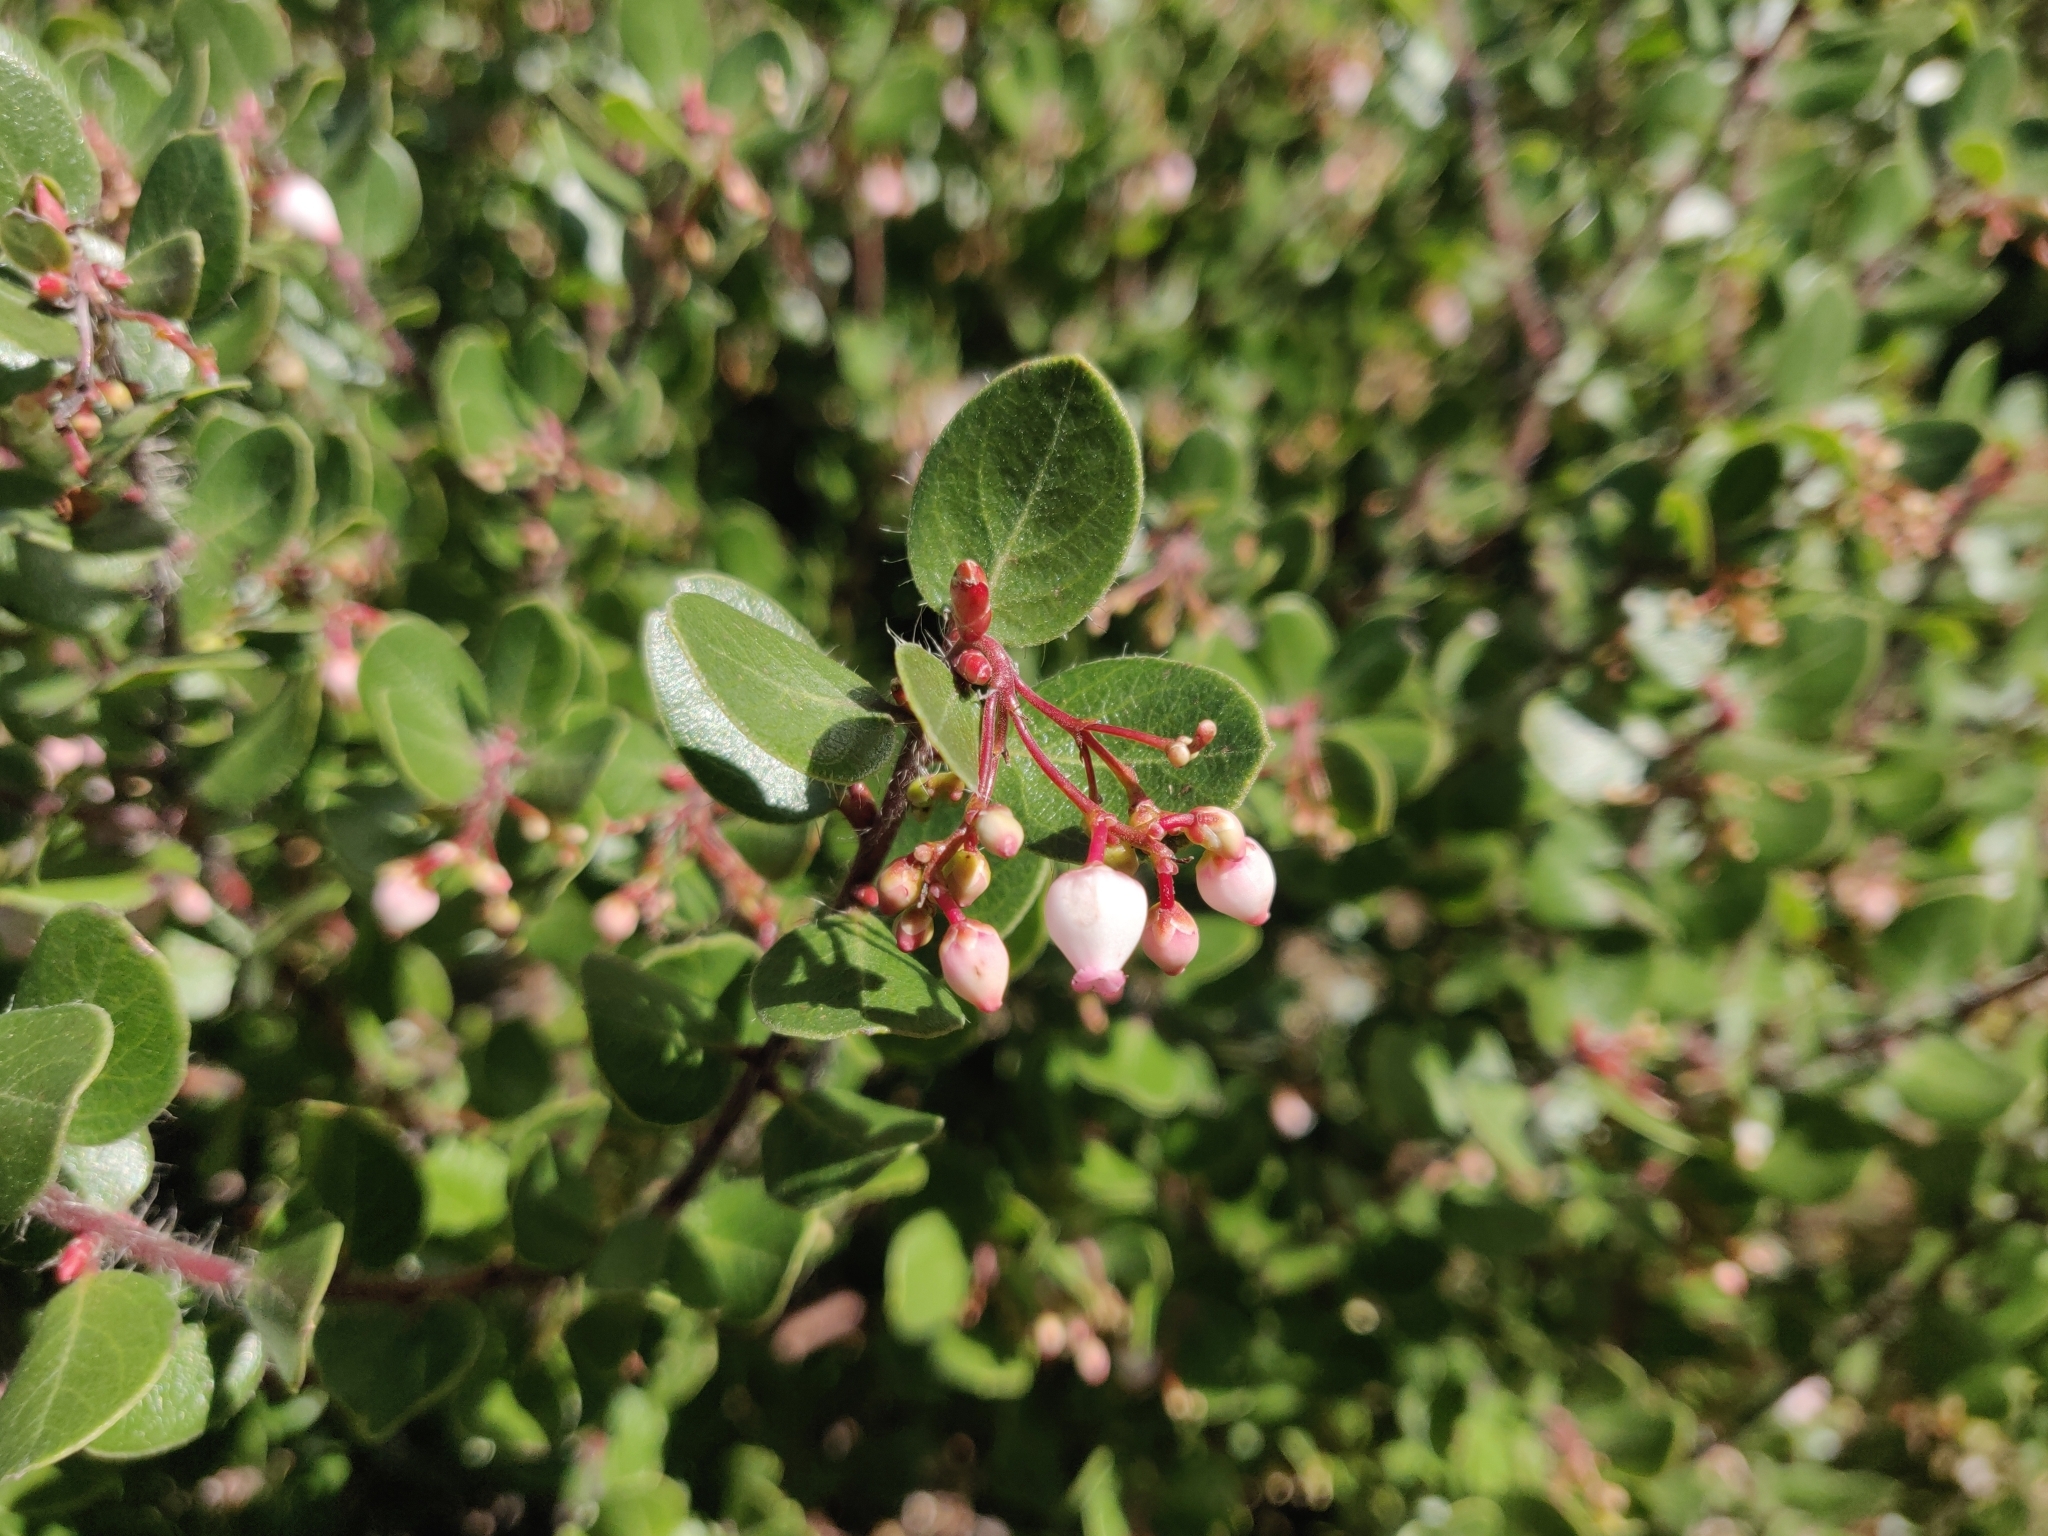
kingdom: Plantae
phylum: Tracheophyta
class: Magnoliopsida
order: Ericales
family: Ericaceae
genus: Arctostaphylos
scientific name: Arctostaphylos nummularia
